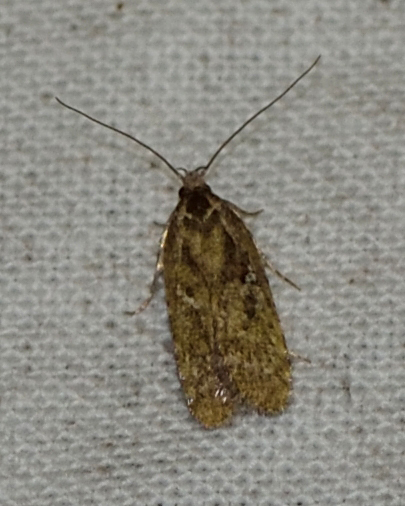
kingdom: Animalia
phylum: Arthropoda
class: Insecta
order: Lepidoptera
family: Depressariidae
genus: Agonopterix
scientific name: Agonopterix hypericella
